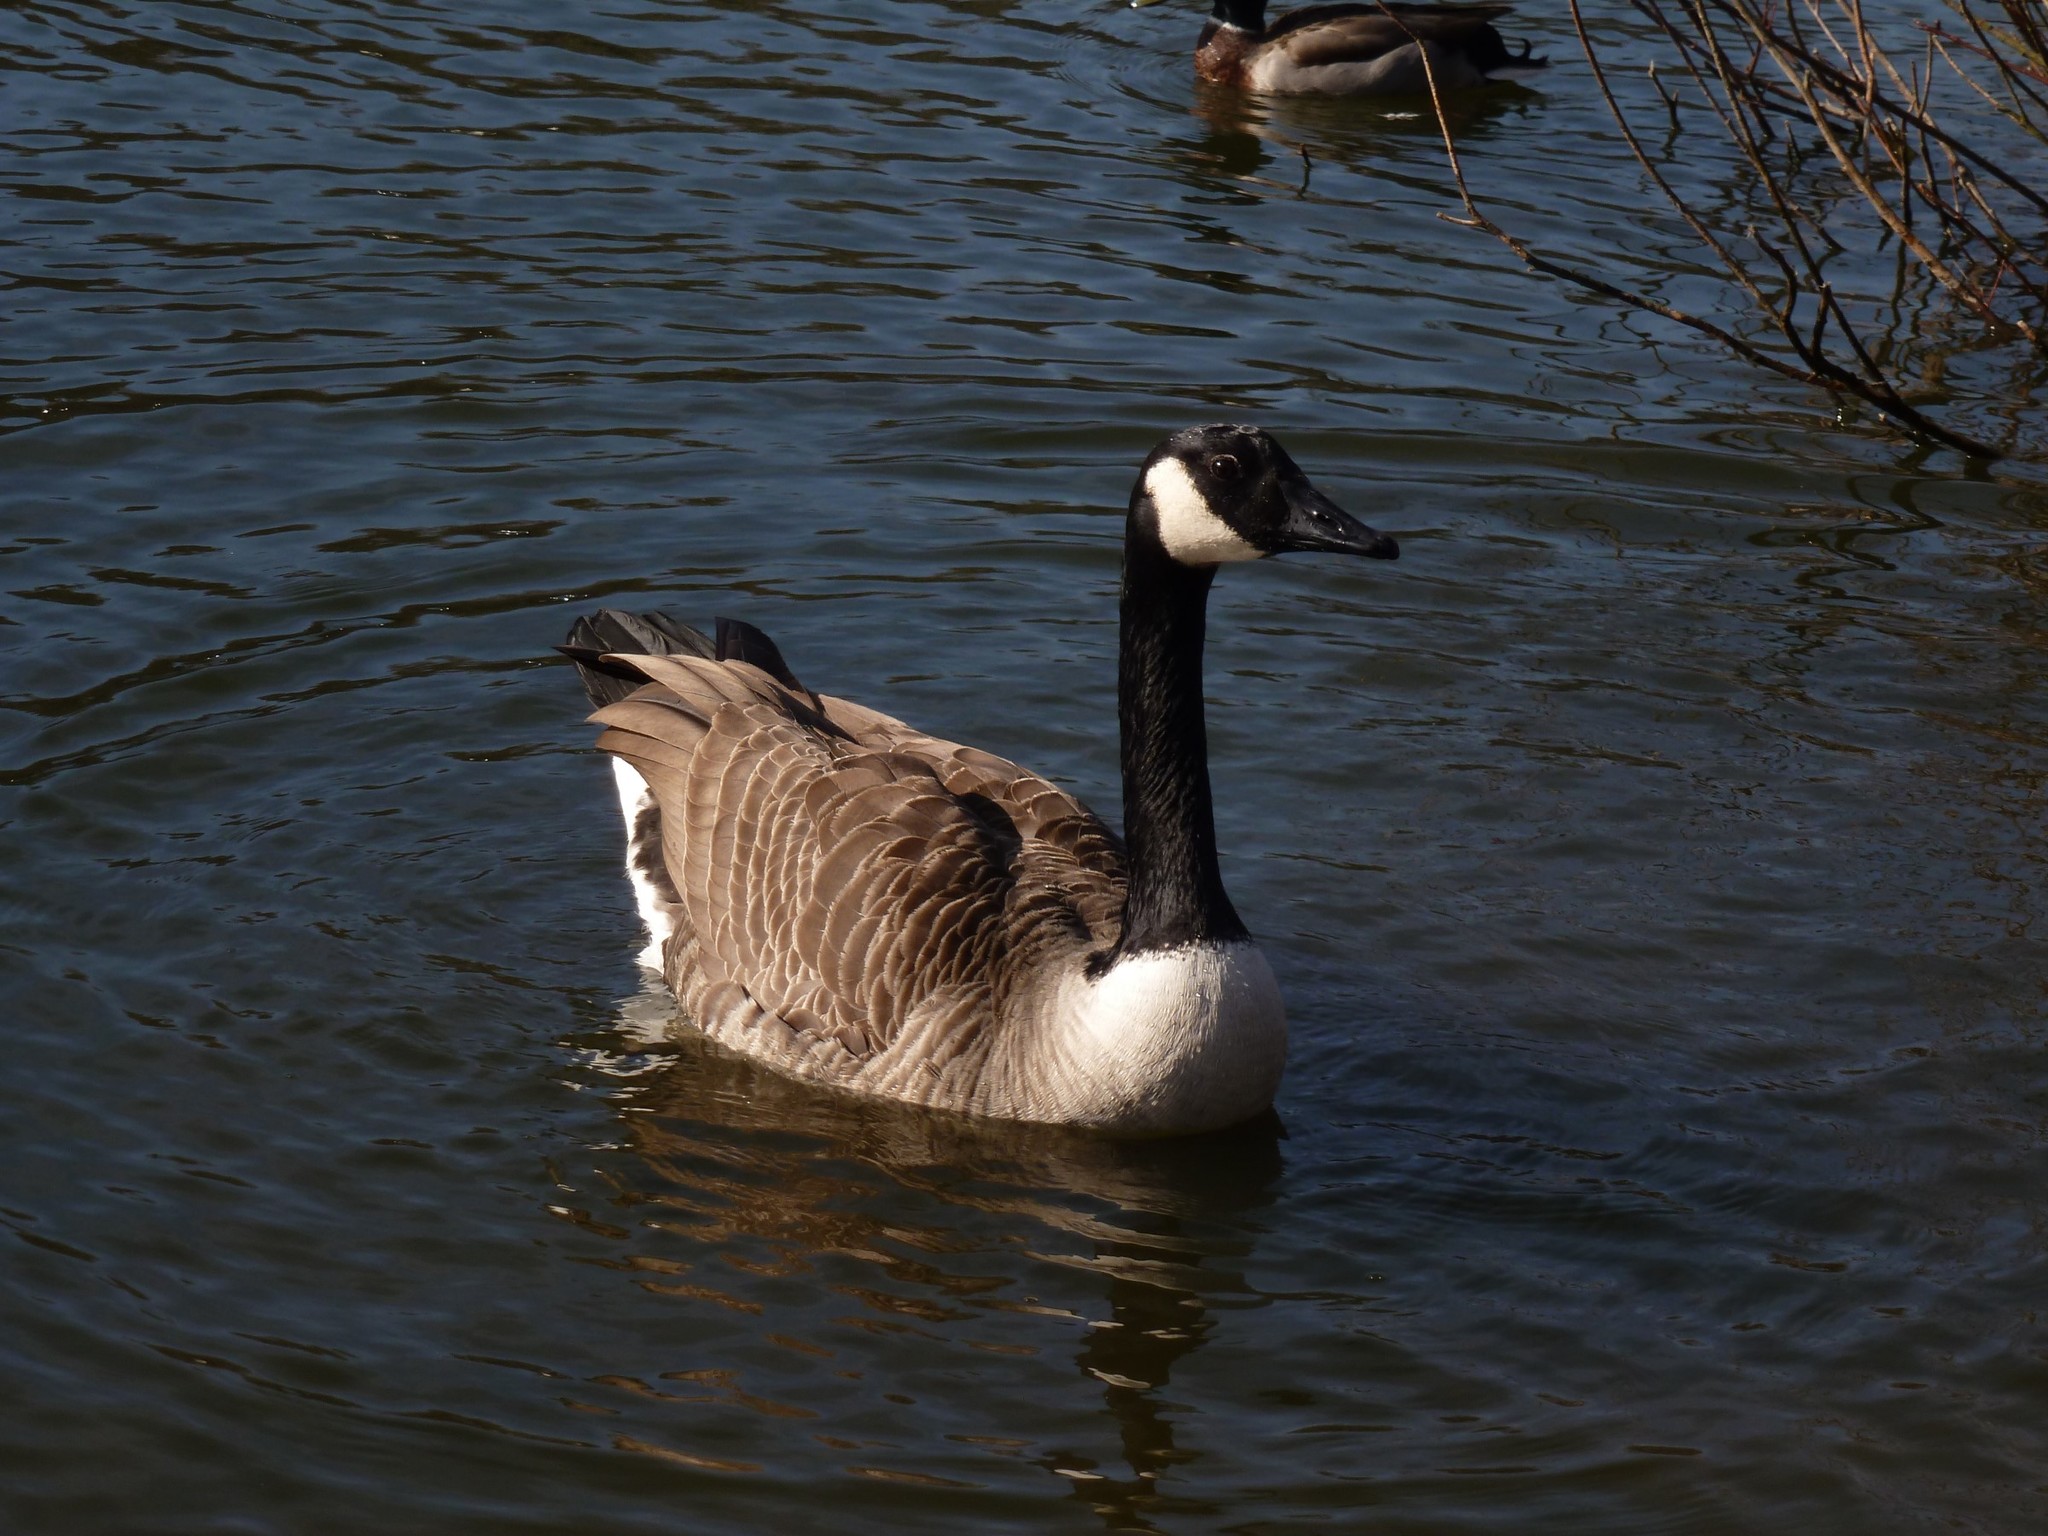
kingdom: Animalia
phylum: Chordata
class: Aves
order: Anseriformes
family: Anatidae
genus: Branta
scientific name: Branta canadensis
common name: Canada goose
